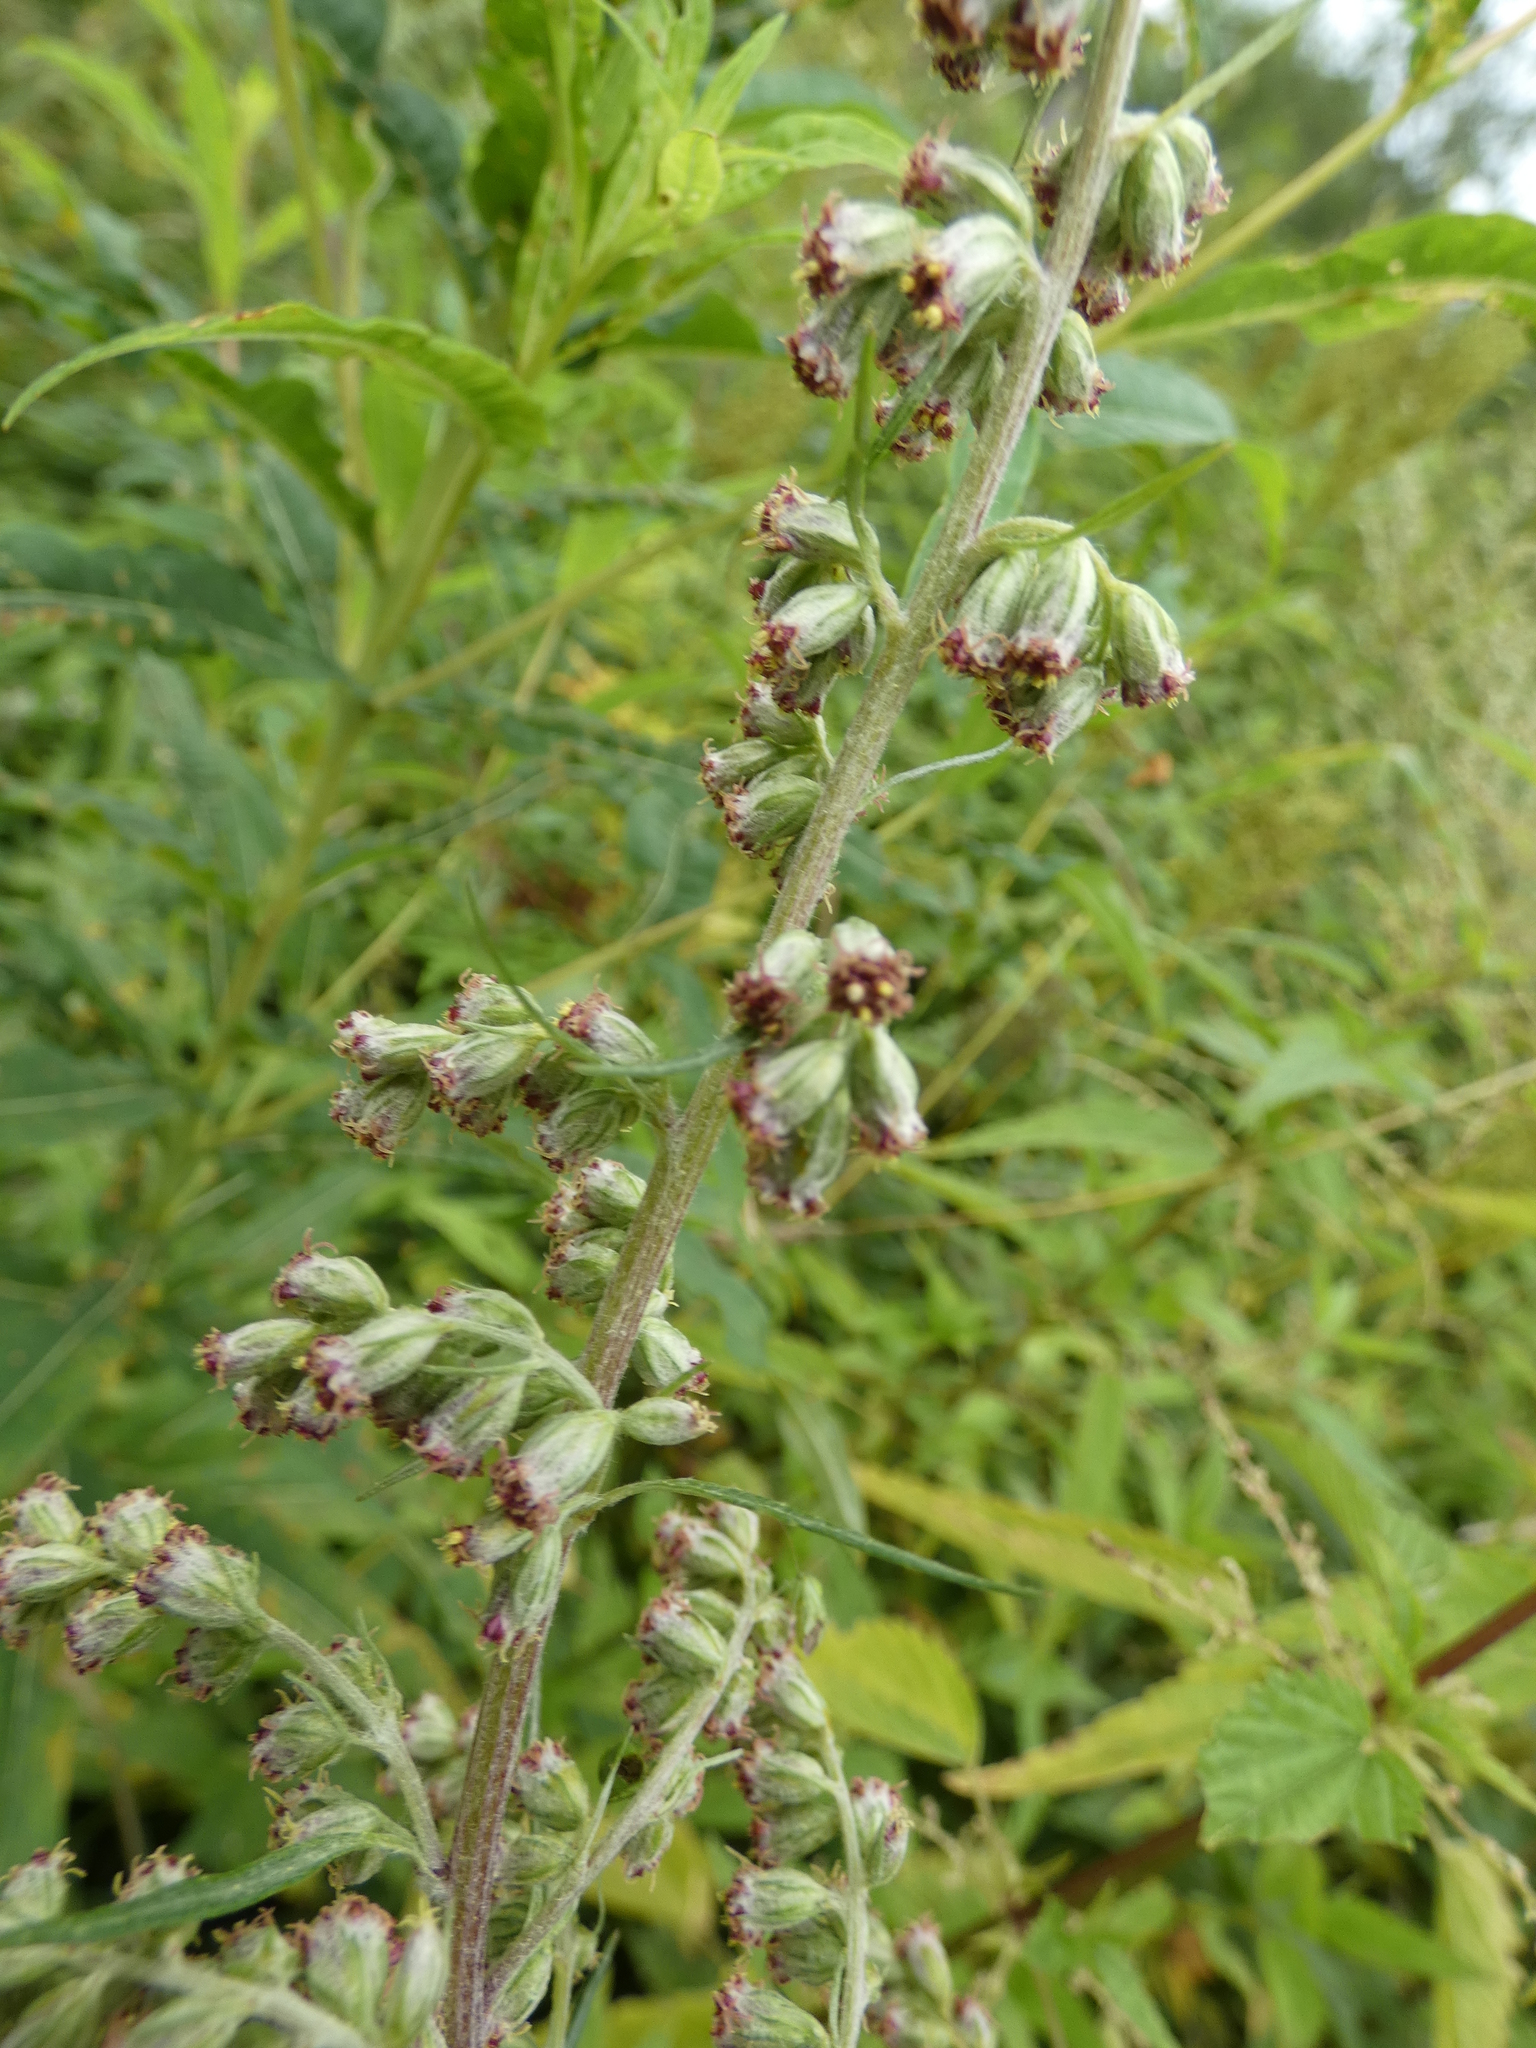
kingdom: Plantae
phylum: Tracheophyta
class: Magnoliopsida
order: Asterales
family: Asteraceae
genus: Artemisia
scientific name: Artemisia vulgaris
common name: Mugwort
